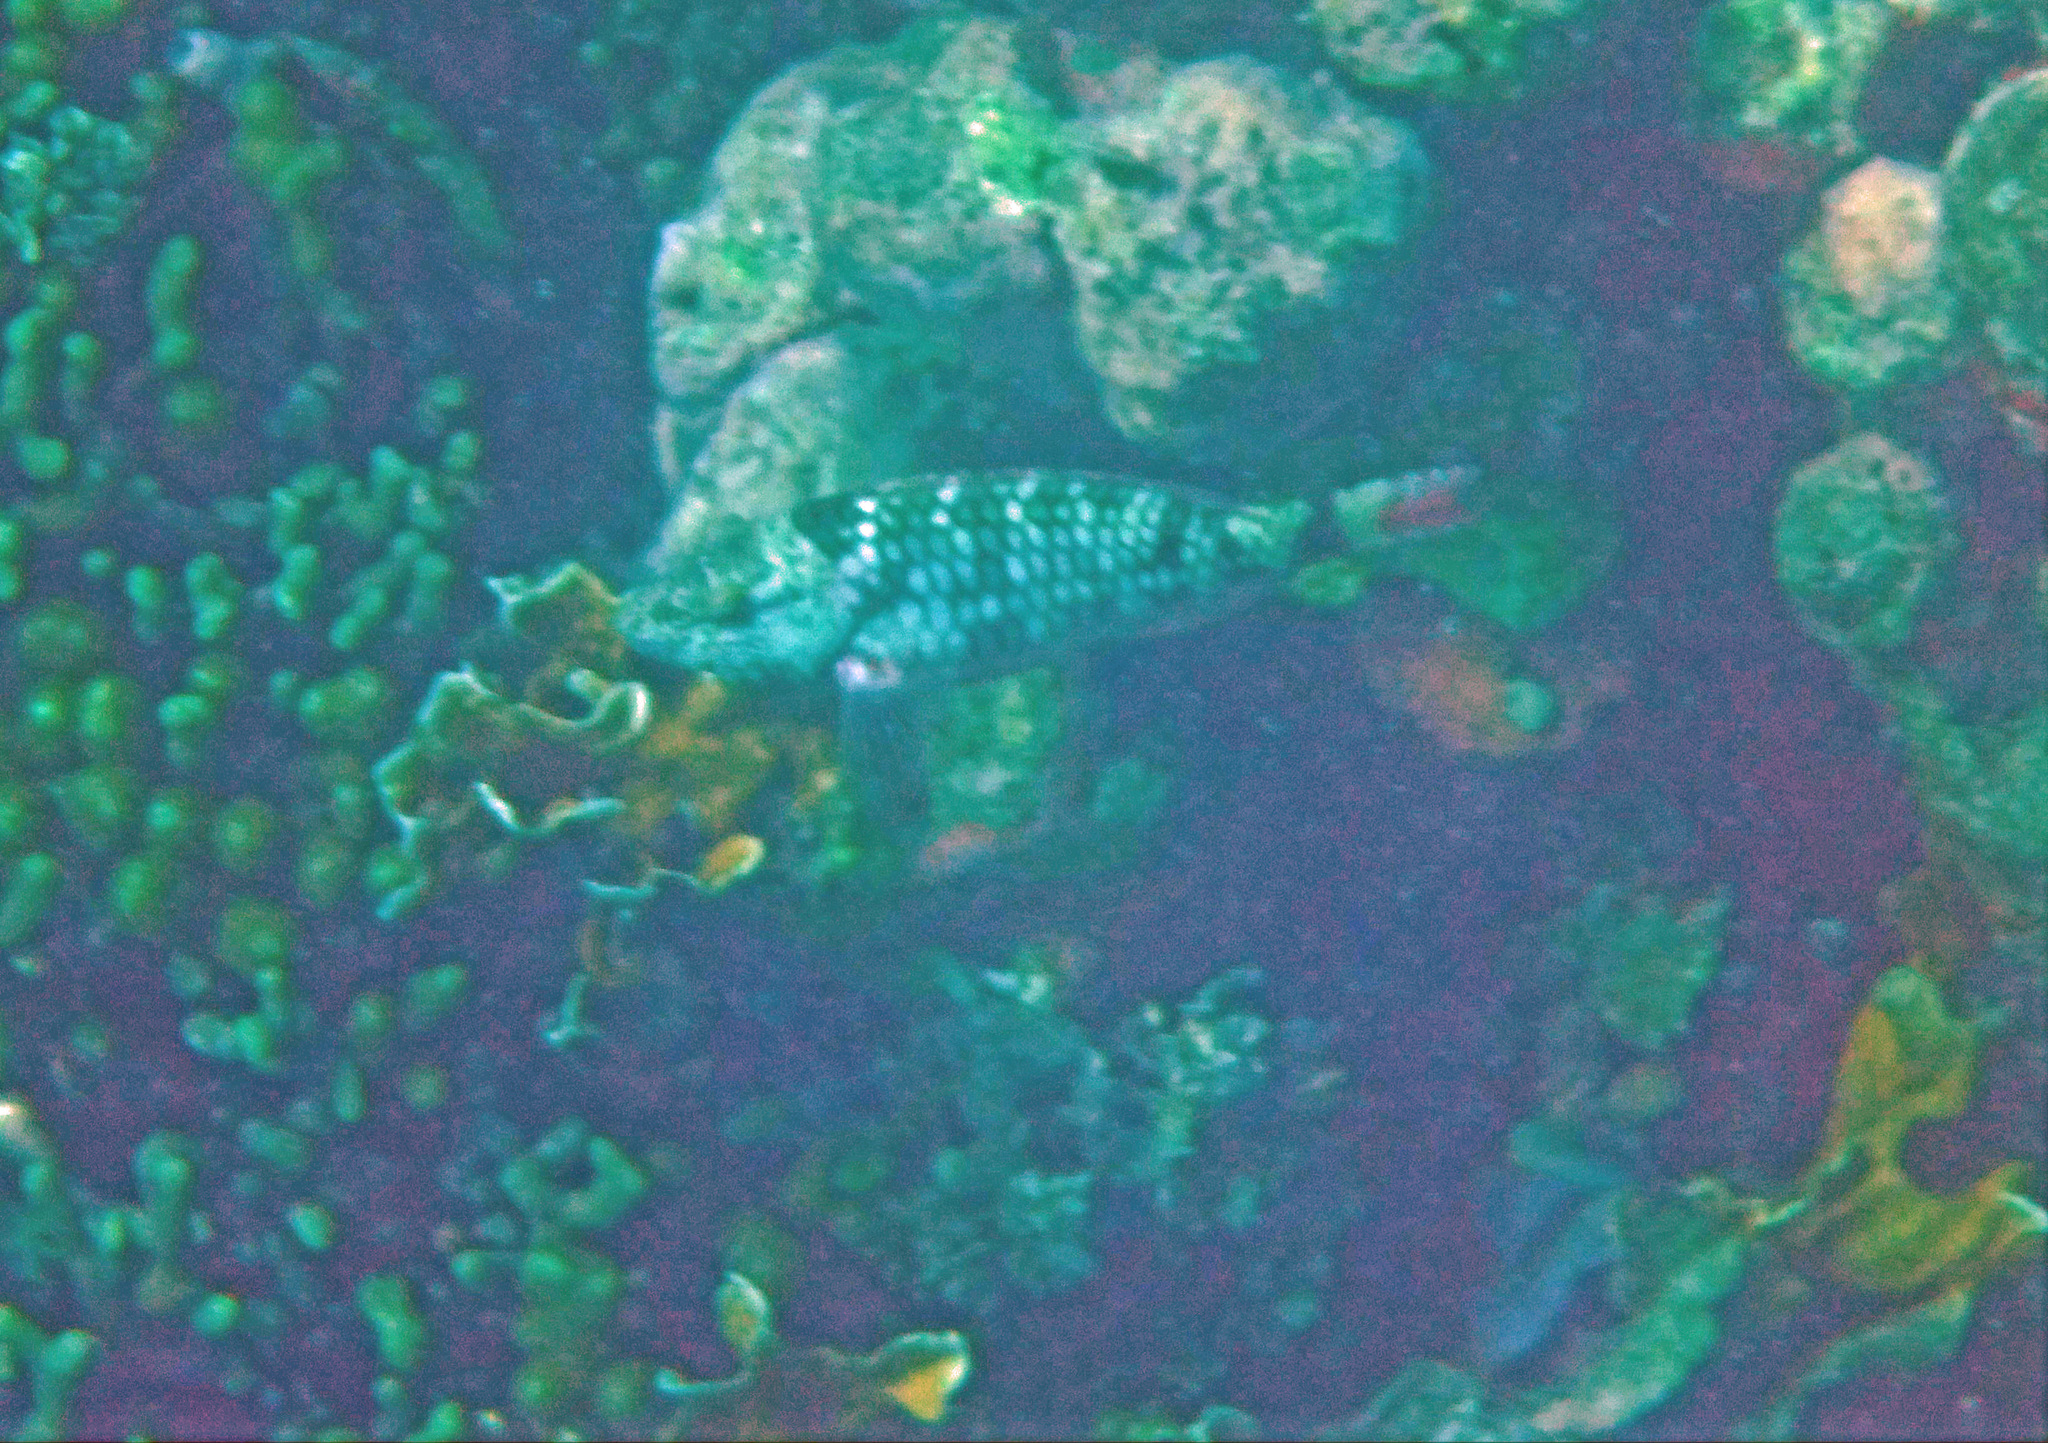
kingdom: Animalia
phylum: Chordata
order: Perciformes
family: Scaridae
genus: Sparisoma
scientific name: Sparisoma viride
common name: Stoplight parrotfish
